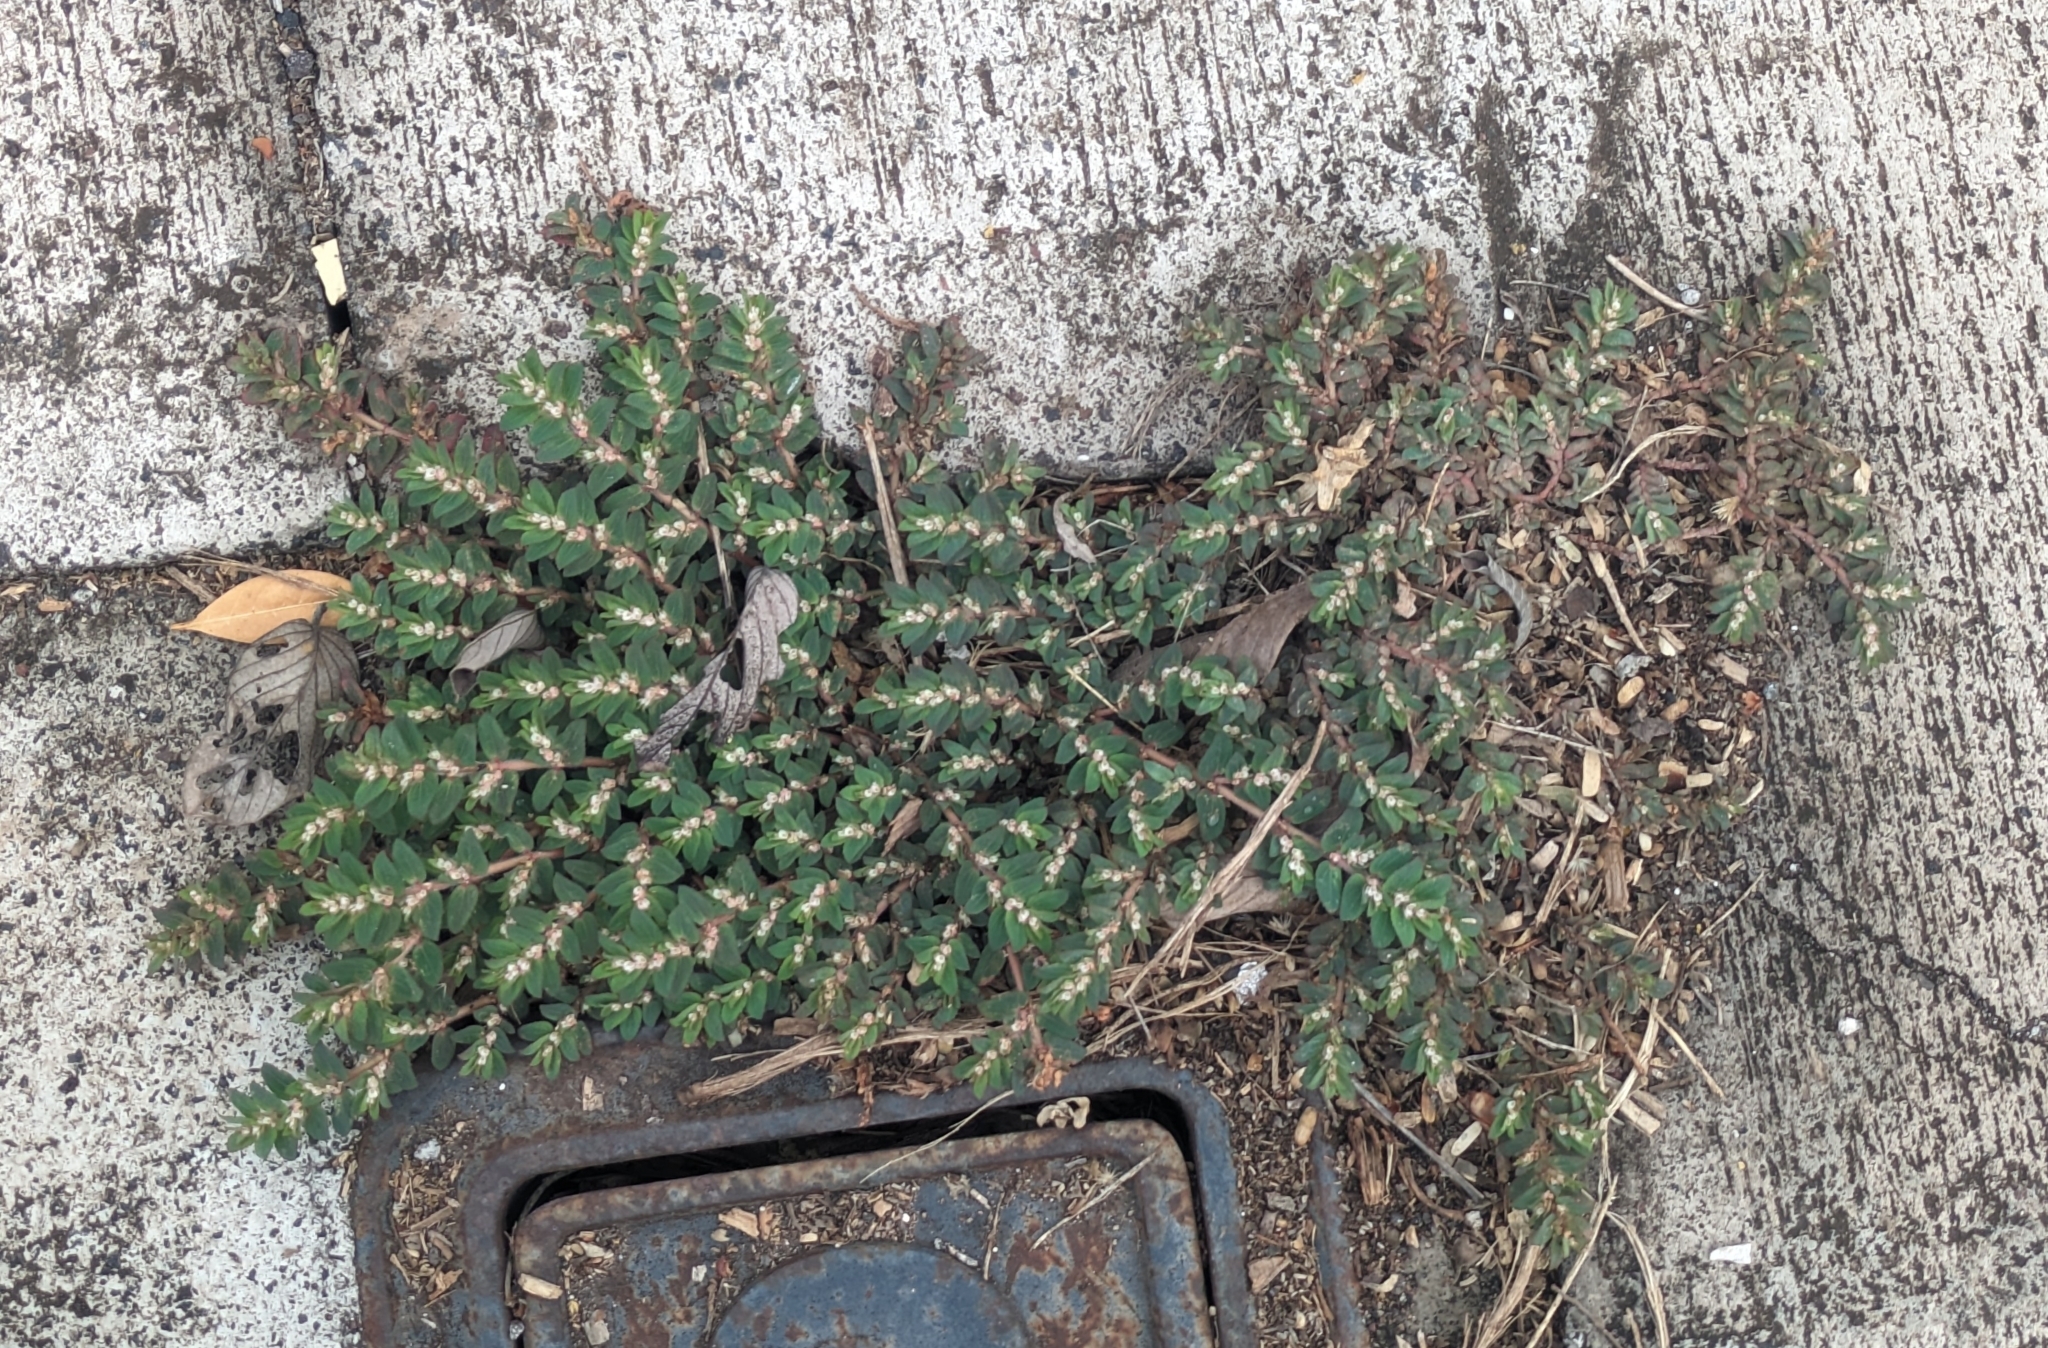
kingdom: Plantae
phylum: Tracheophyta
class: Magnoliopsida
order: Malpighiales
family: Euphorbiaceae
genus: Euphorbia
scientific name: Euphorbia dioeca
